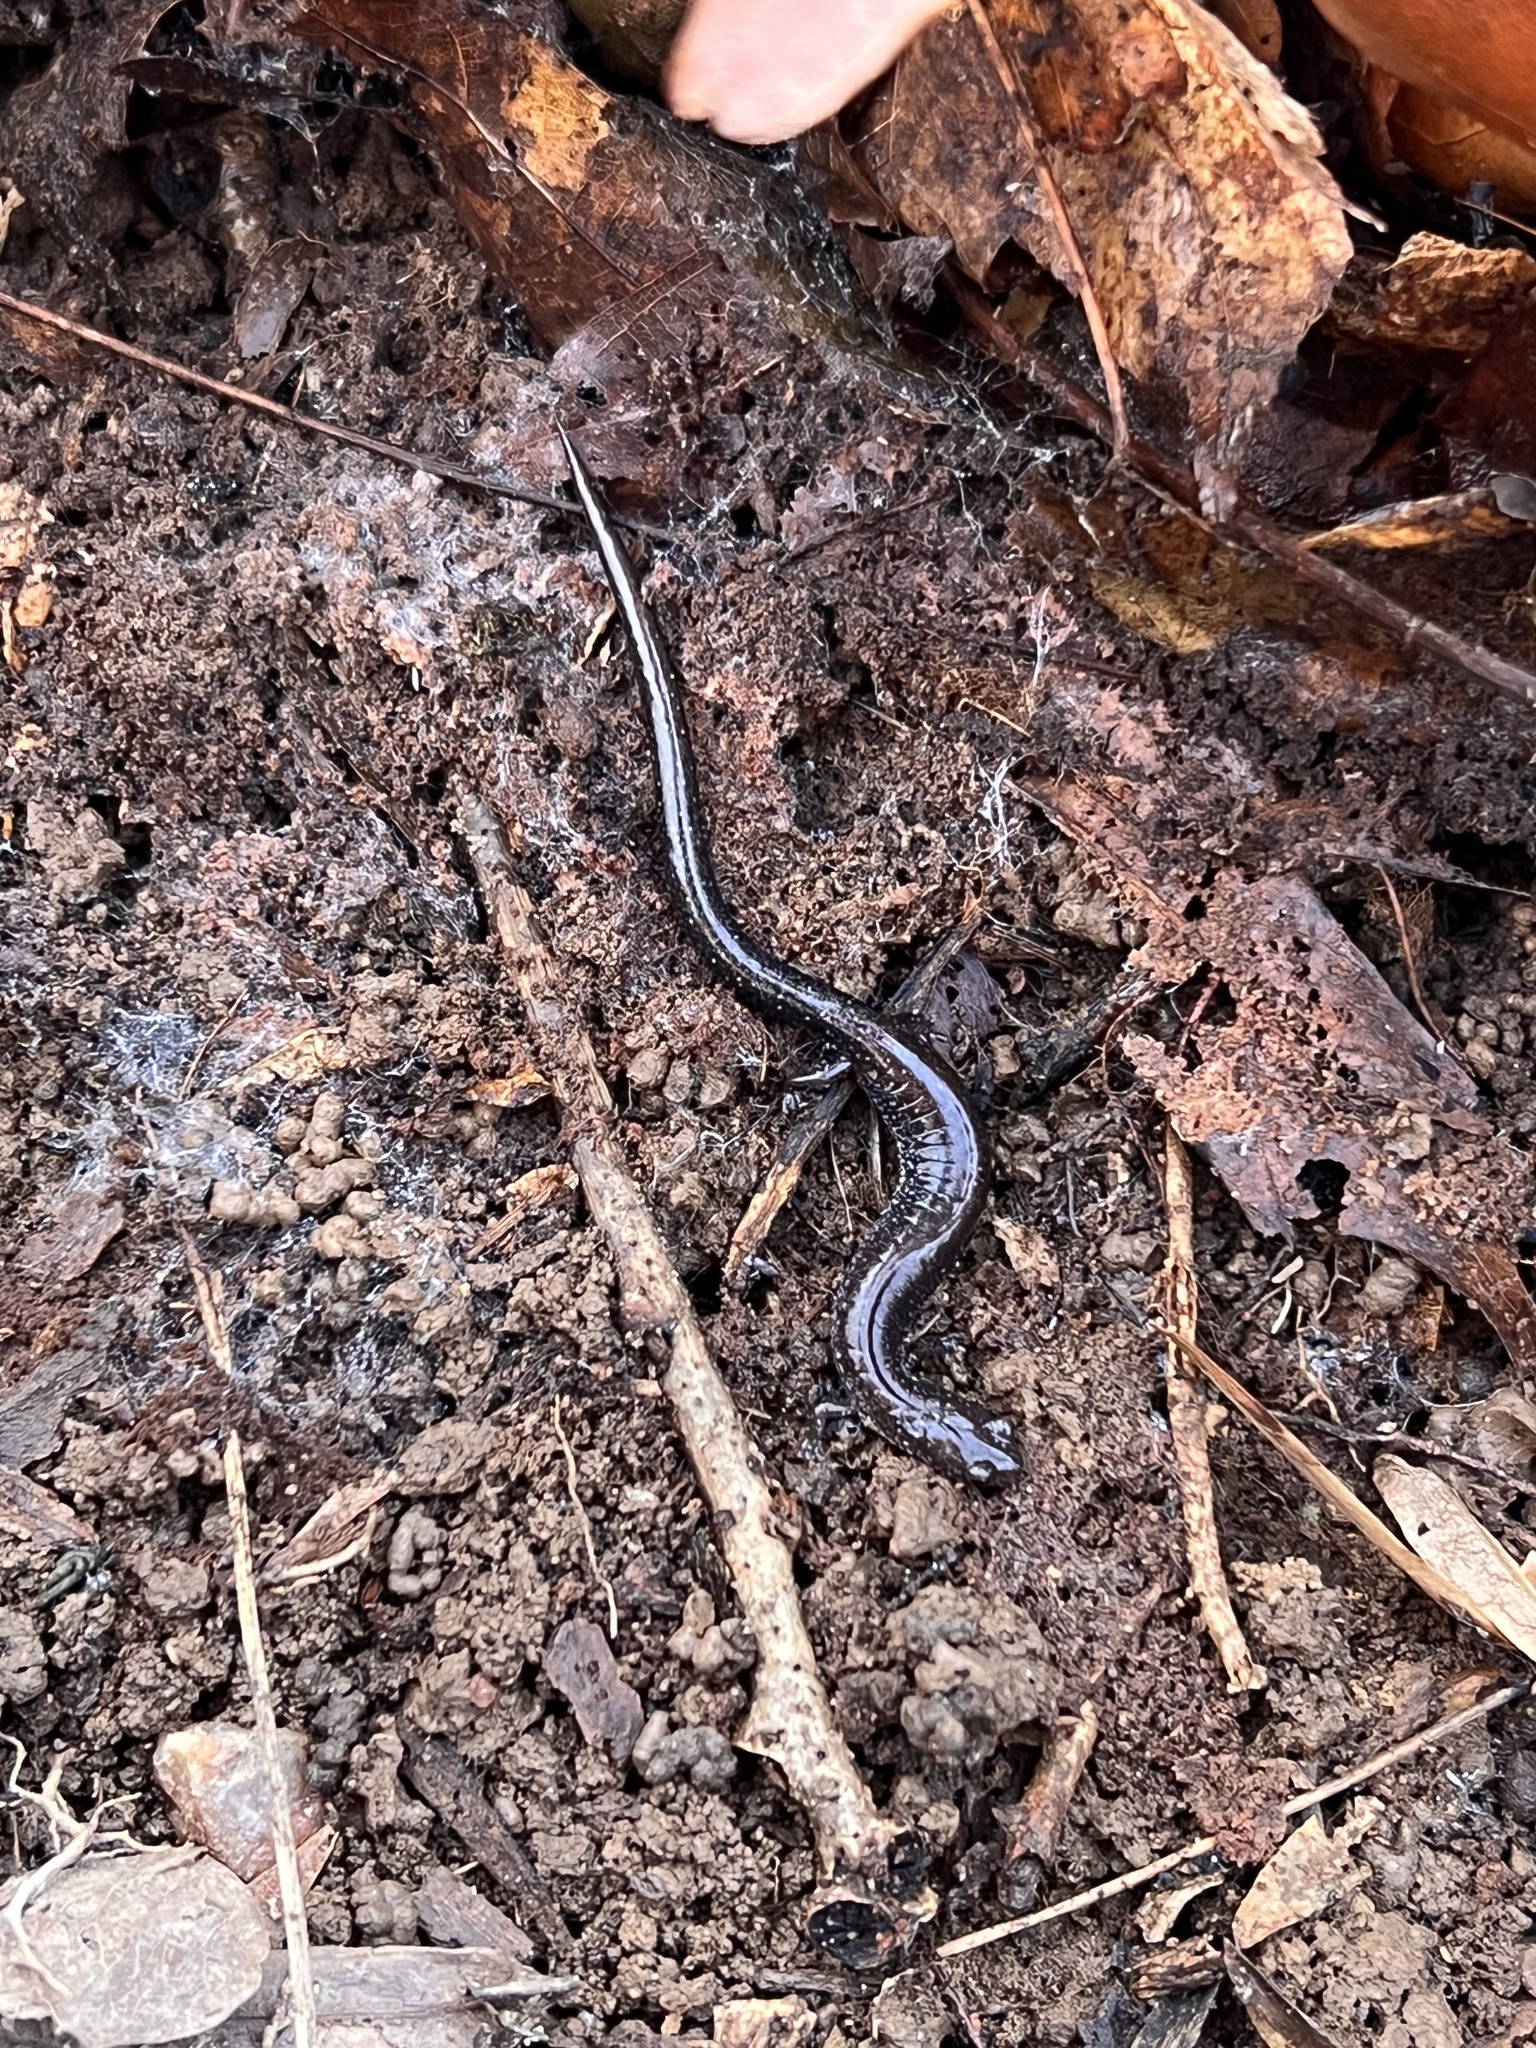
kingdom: Animalia
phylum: Chordata
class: Amphibia
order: Caudata
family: Plethodontidae
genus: Plethodon
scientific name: Plethodon cinereus
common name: Redback salamander
